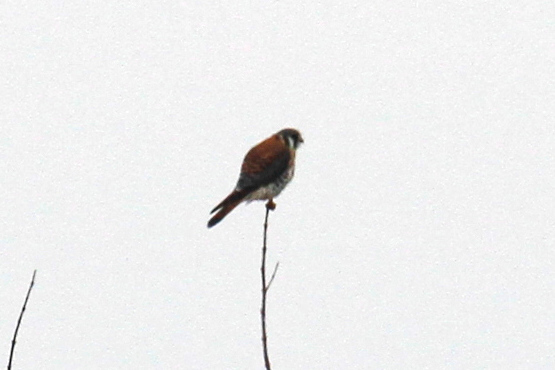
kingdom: Animalia
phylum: Chordata
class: Aves
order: Falconiformes
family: Falconidae
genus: Falco
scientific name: Falco sparverius
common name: American kestrel
